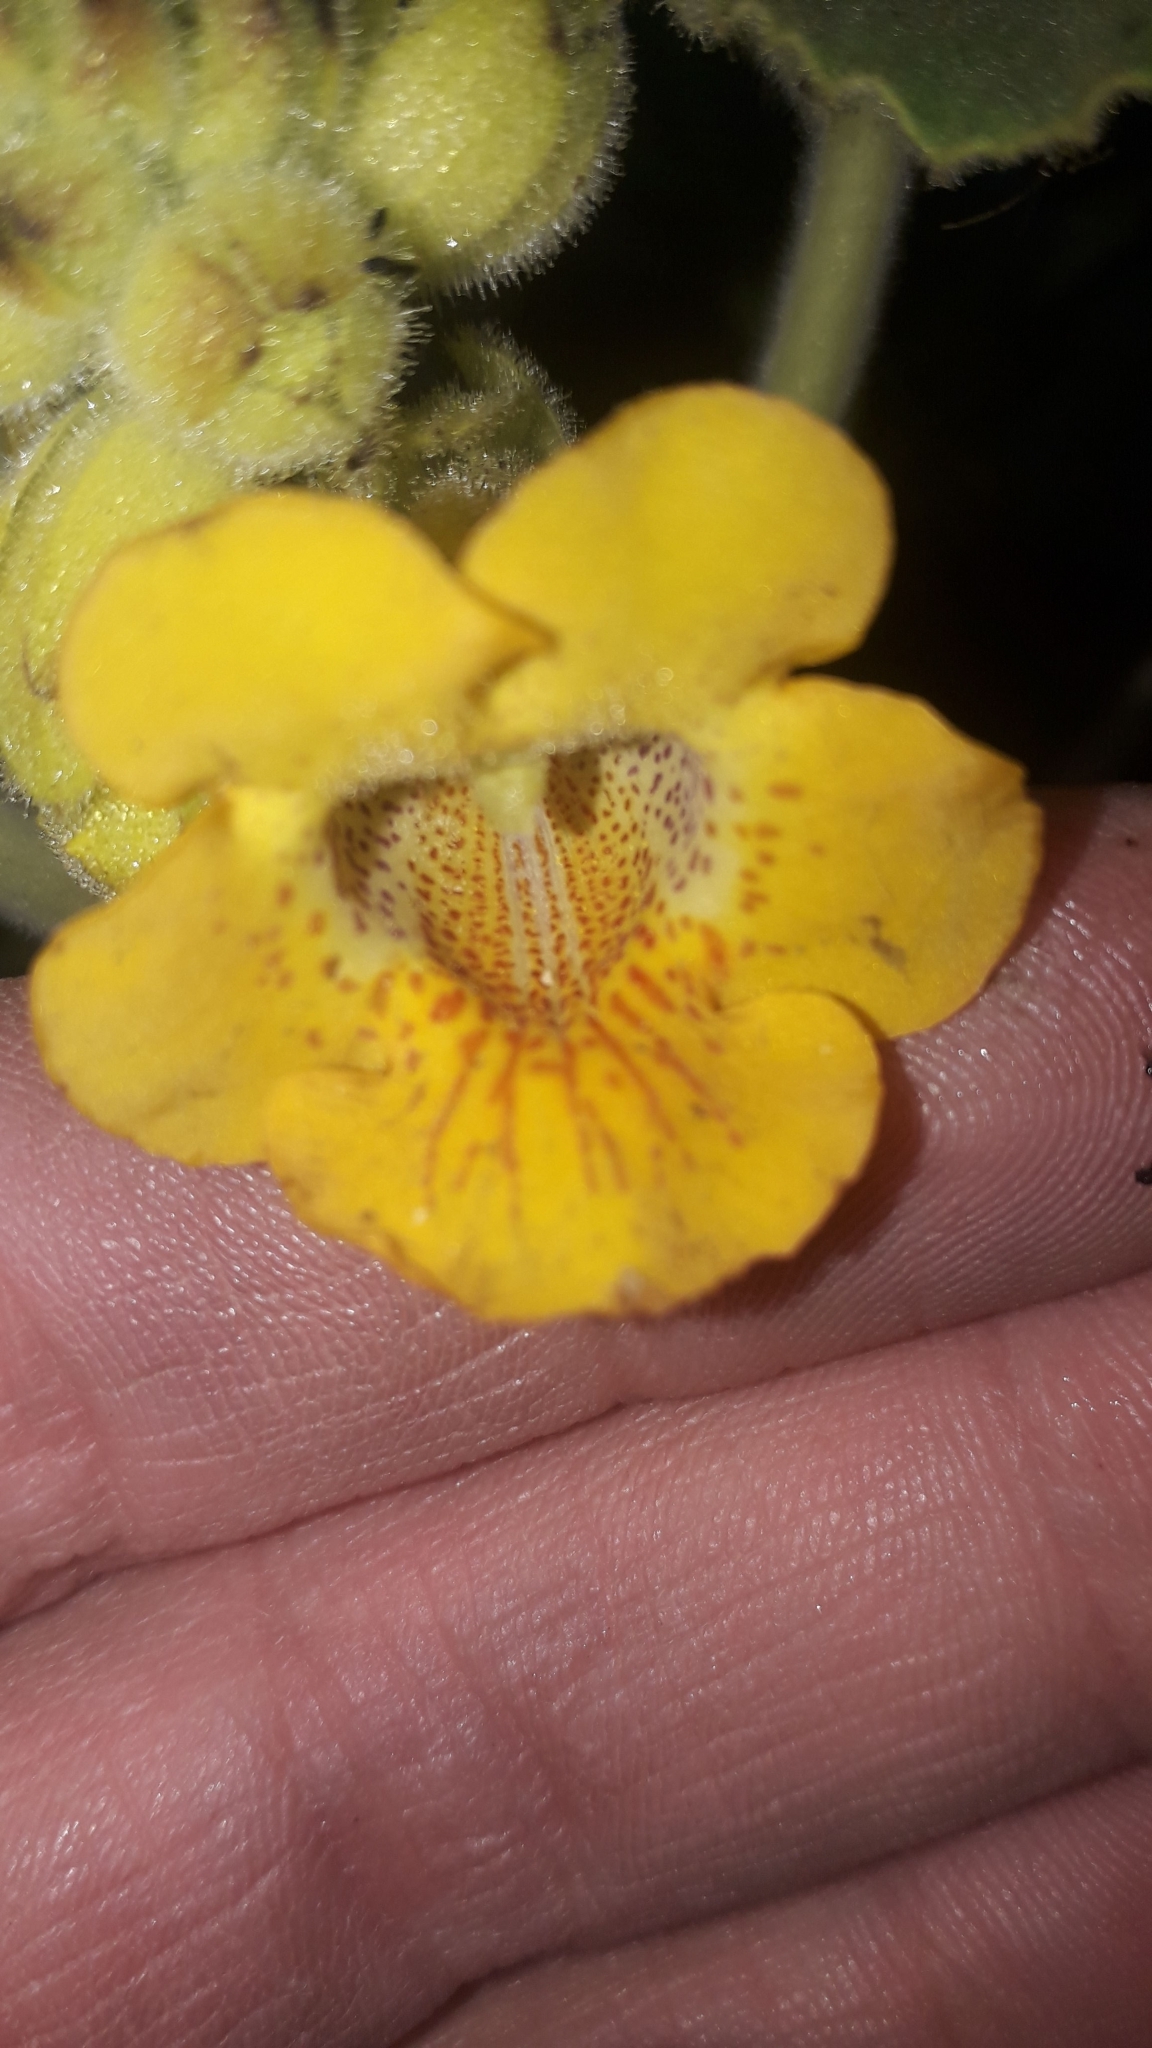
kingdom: Plantae
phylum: Tracheophyta
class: Magnoliopsida
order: Lamiales
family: Martyniaceae
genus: Ibicella
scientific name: Ibicella lutea
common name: Yellow unicorn-plant
